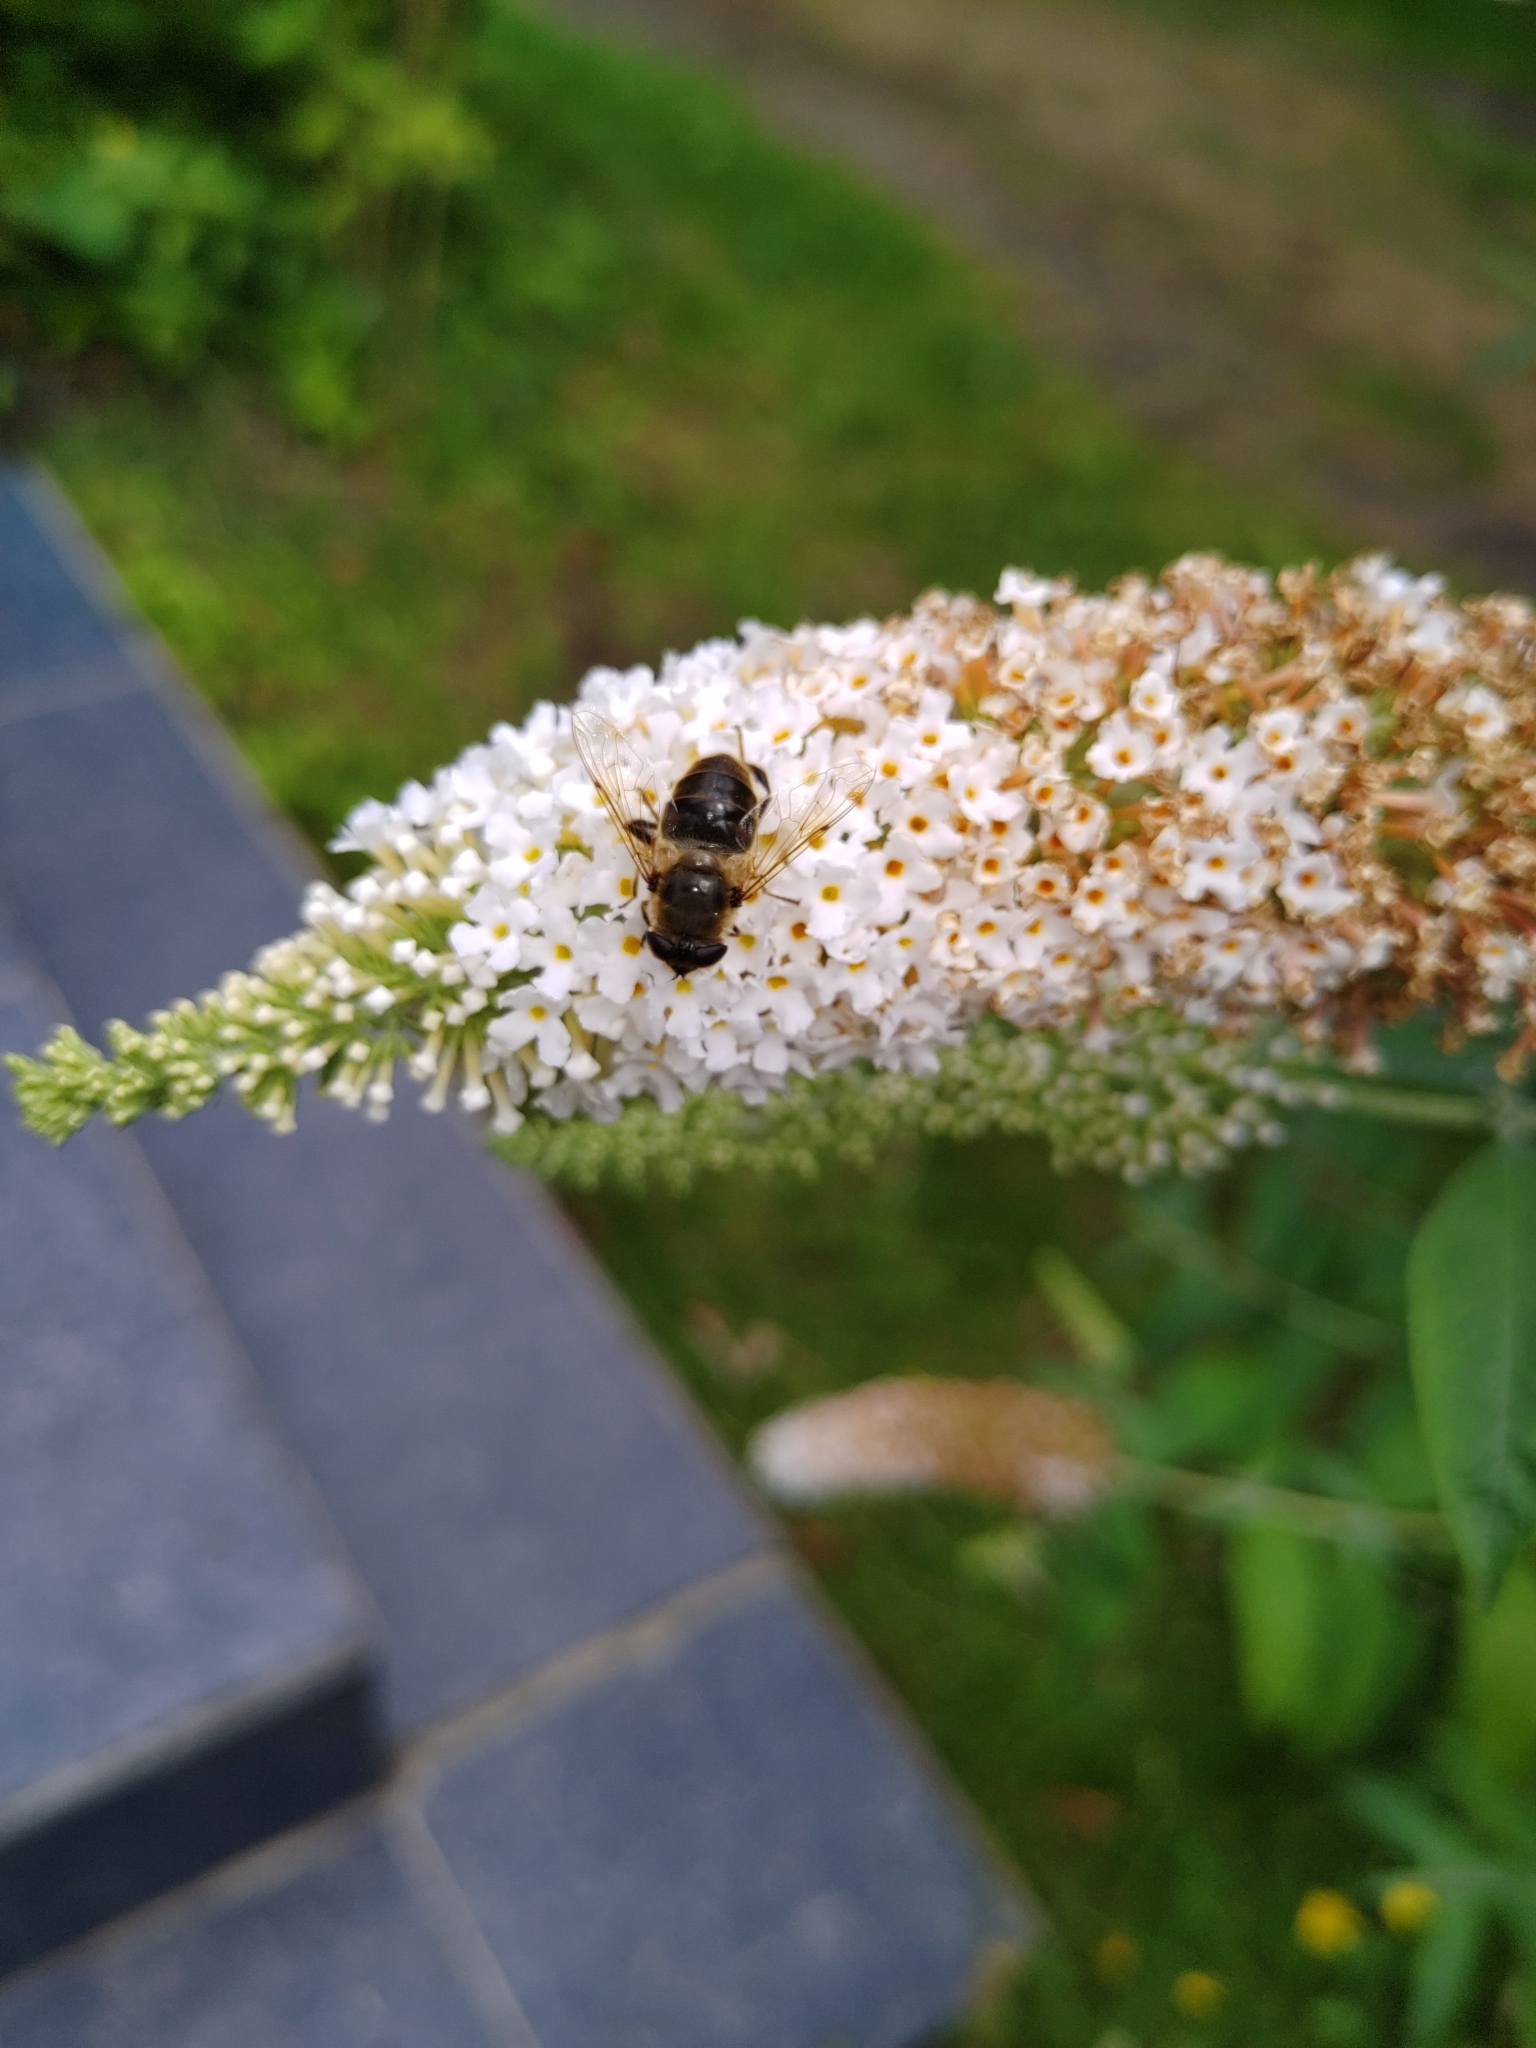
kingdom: Animalia
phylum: Arthropoda
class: Insecta
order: Diptera
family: Syrphidae
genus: Eristalis
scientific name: Eristalis tenax
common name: Drone fly
